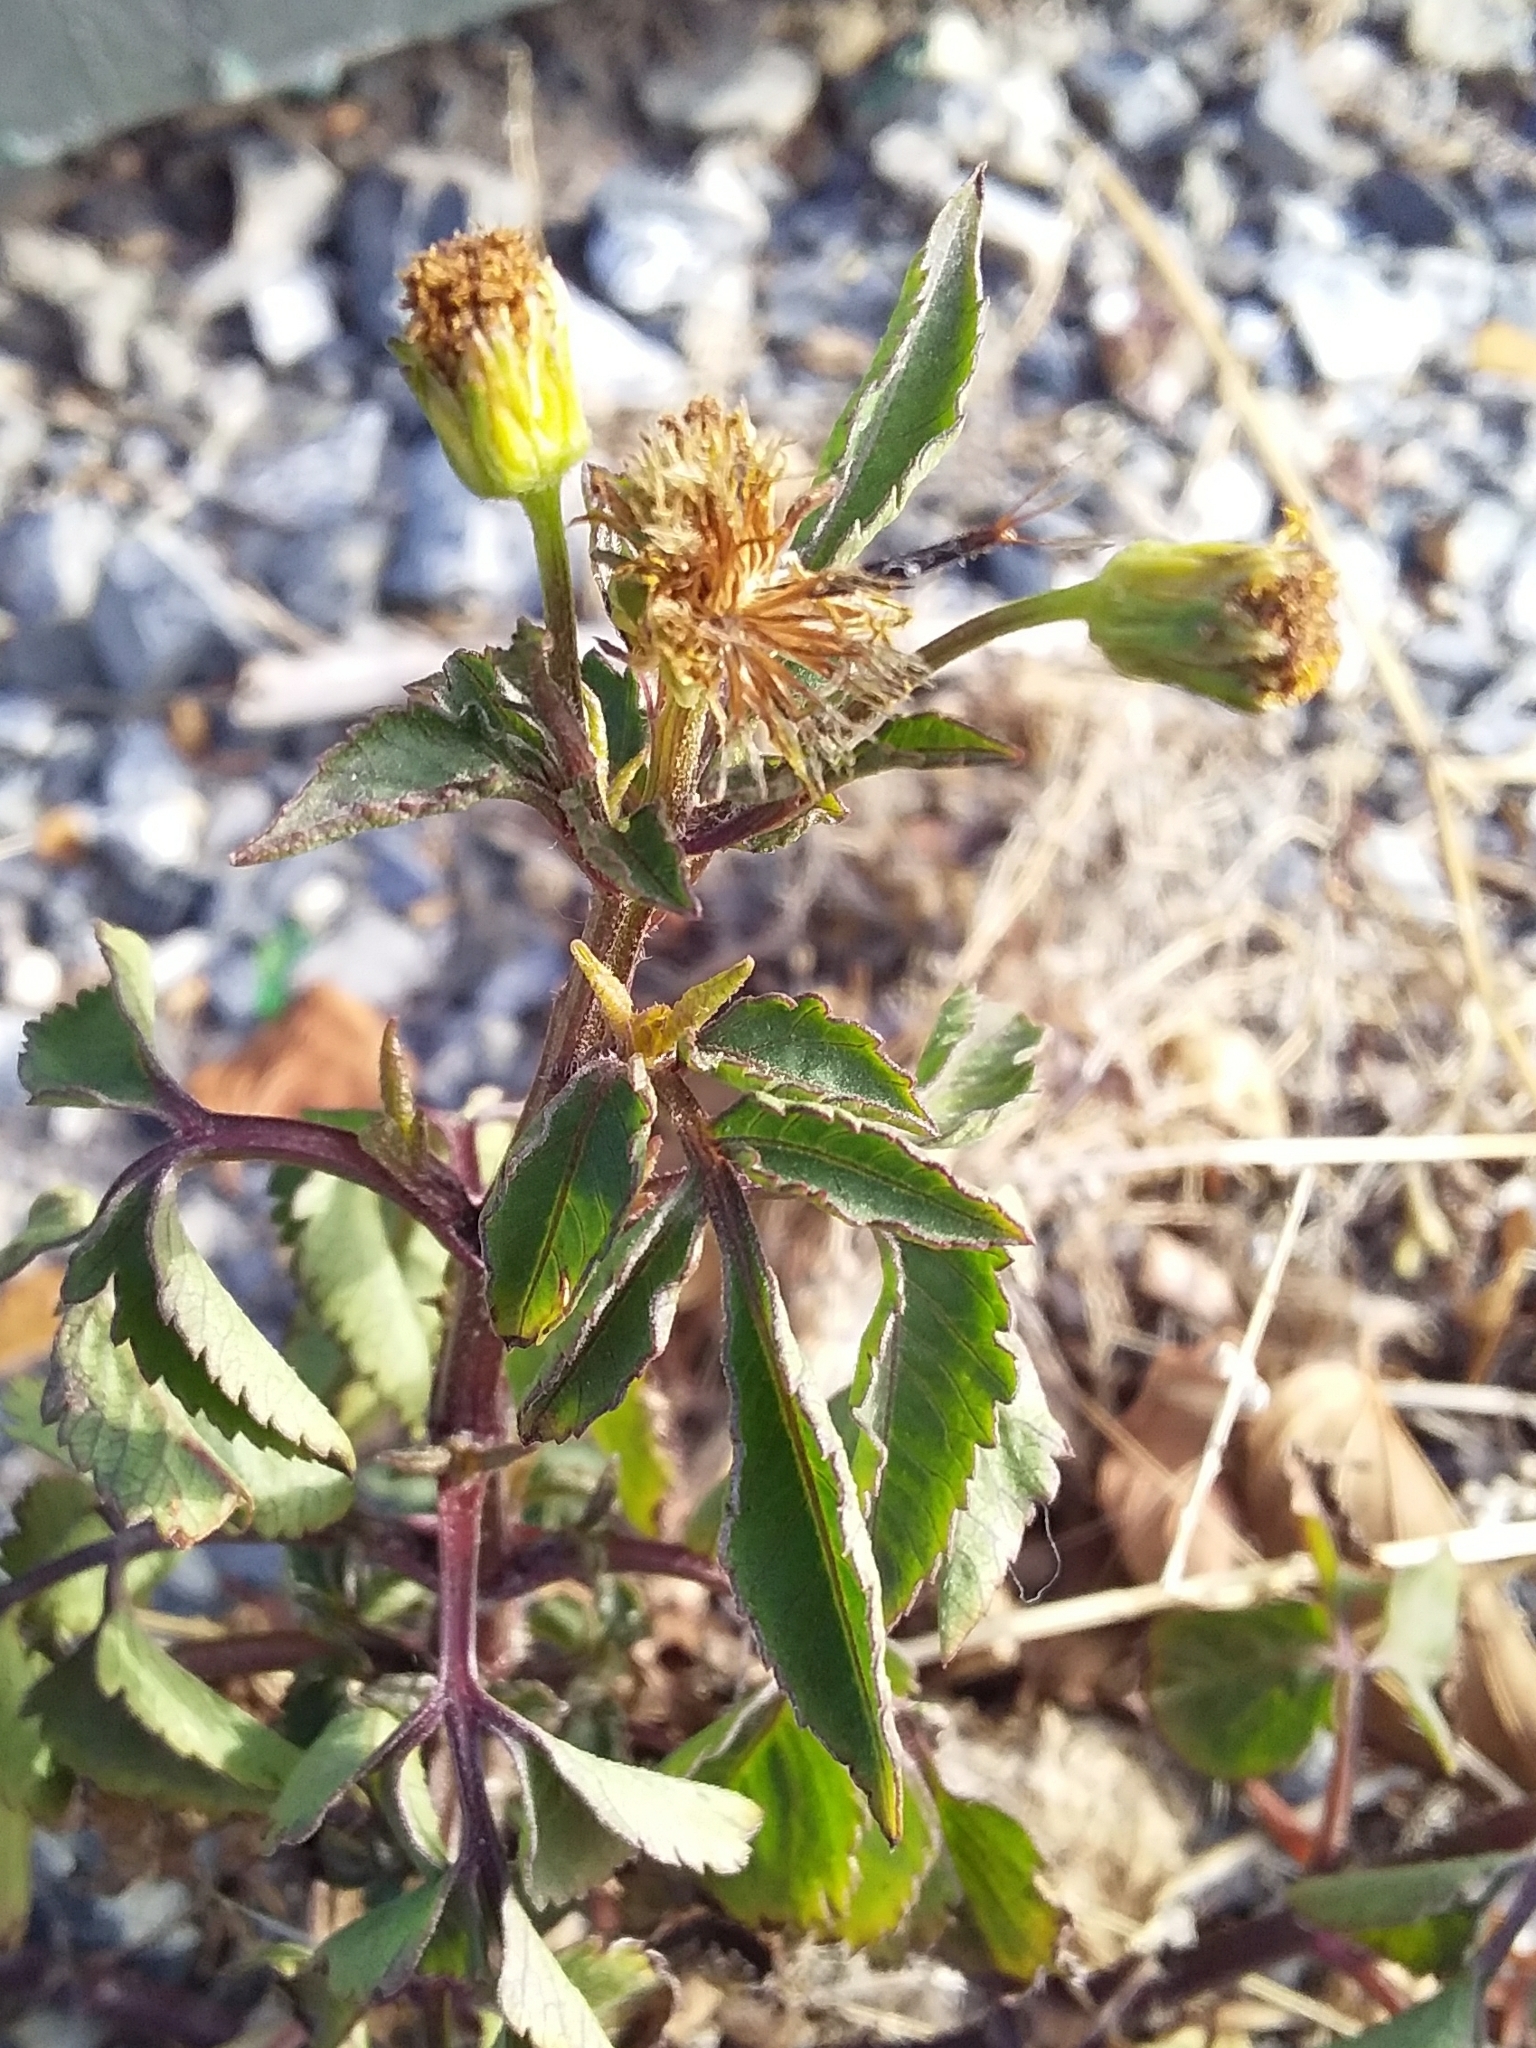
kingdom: Plantae
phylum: Tracheophyta
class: Magnoliopsida
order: Asterales
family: Asteraceae
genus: Bidens
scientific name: Bidens pilosa
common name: Black-jack
